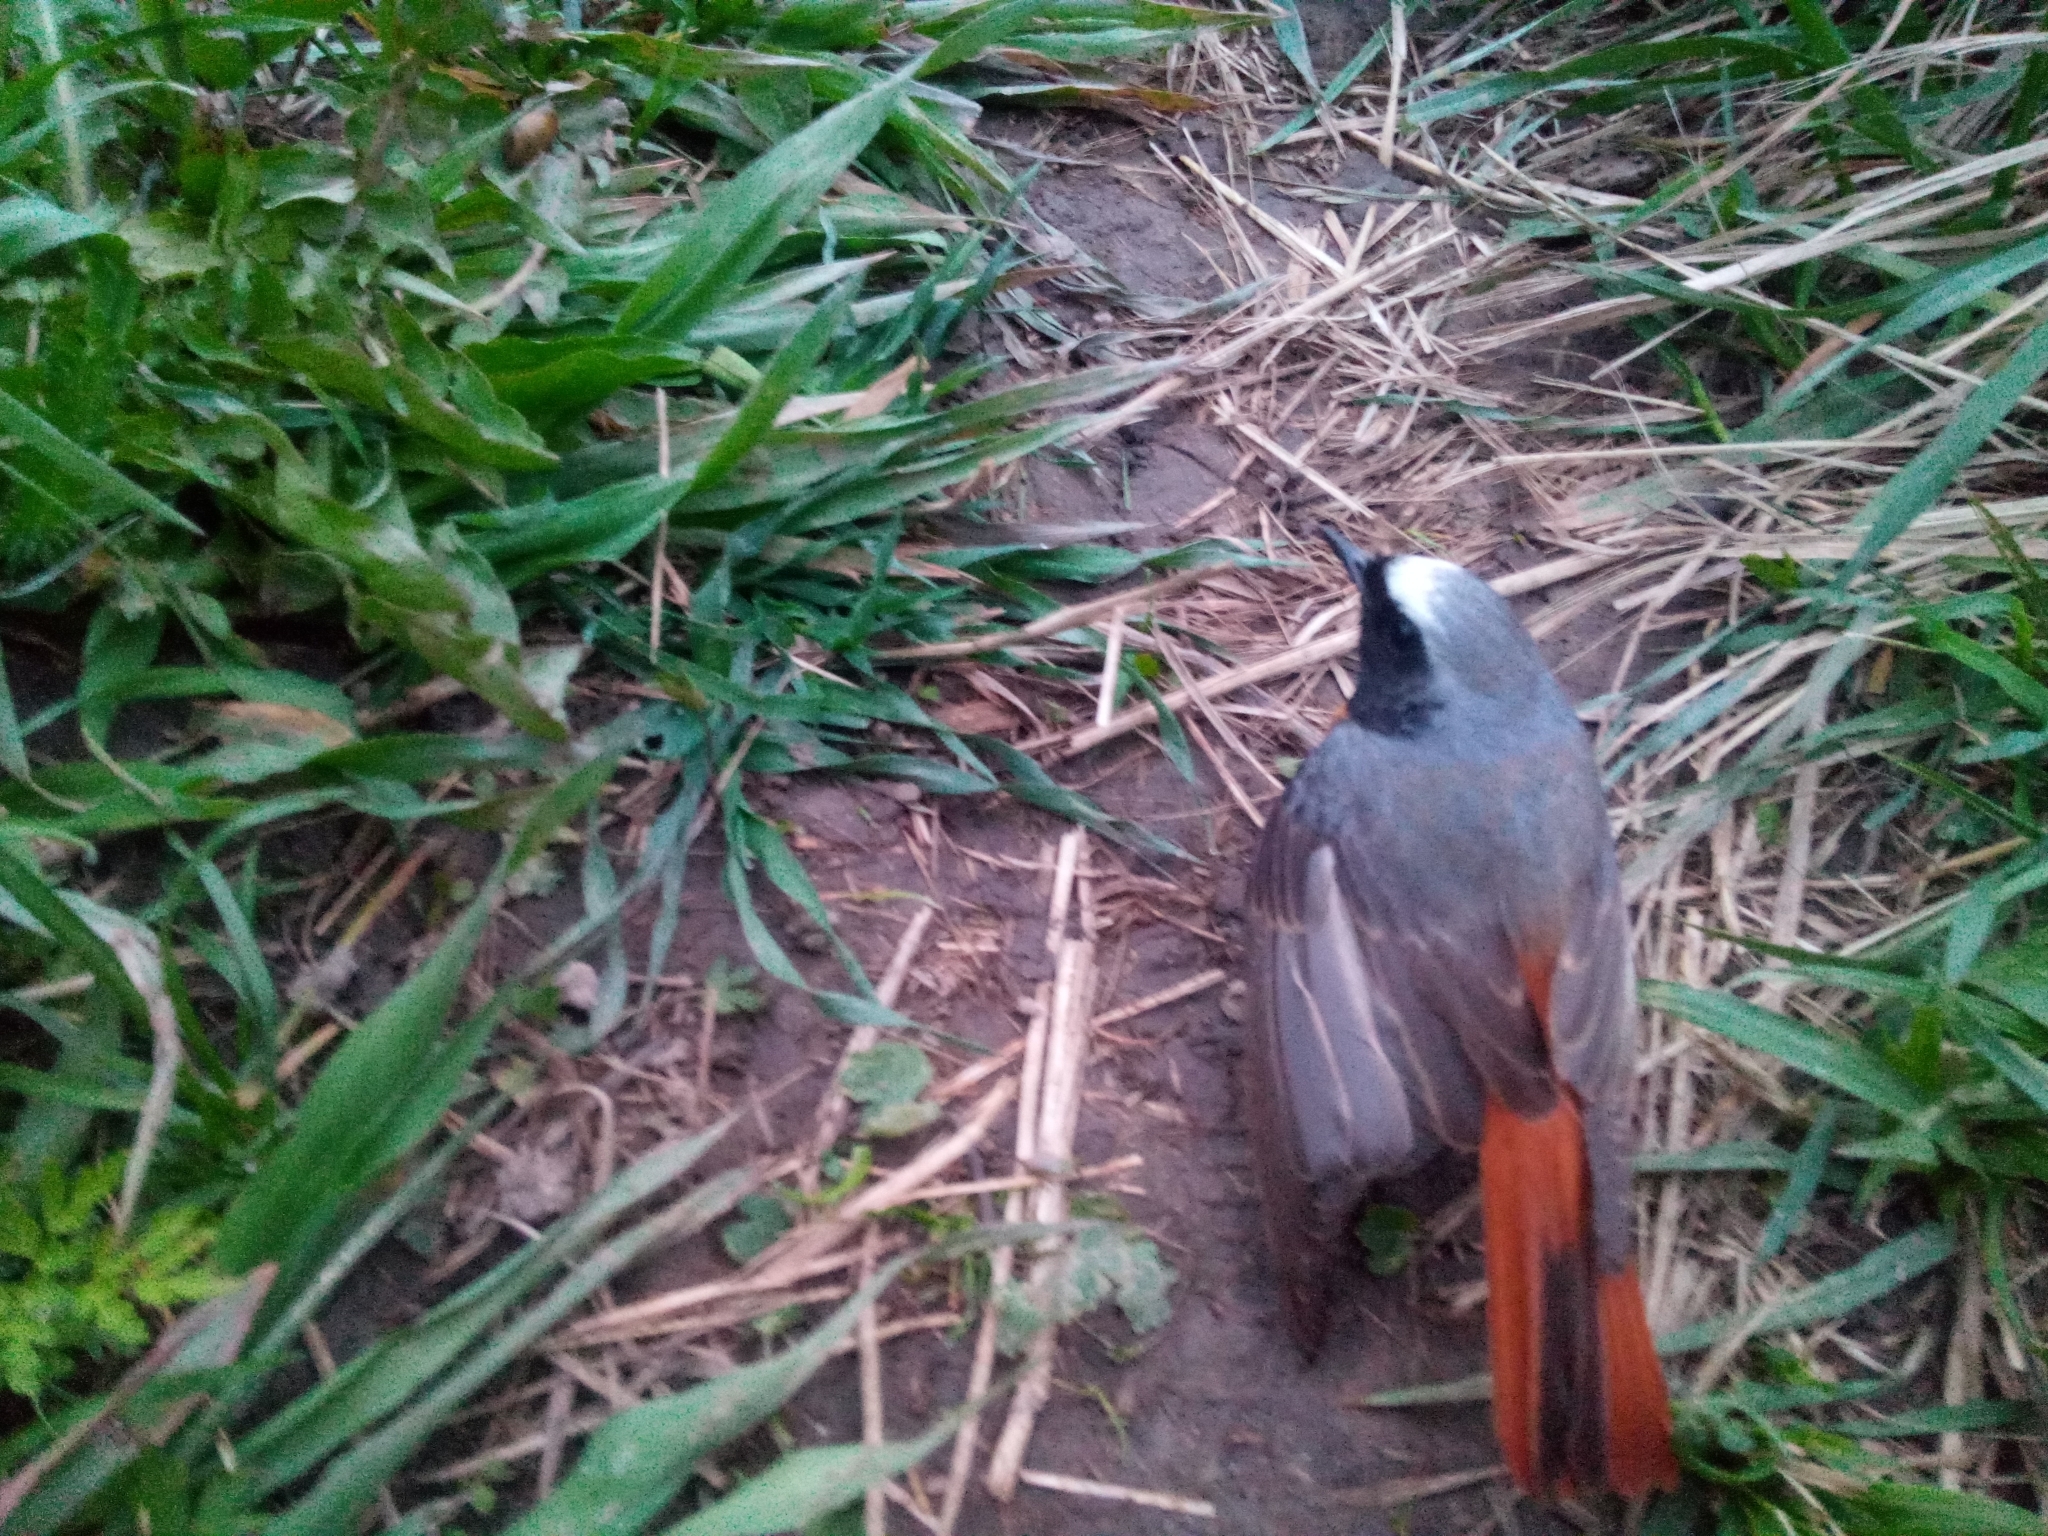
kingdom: Animalia
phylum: Chordata
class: Aves
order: Passeriformes
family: Muscicapidae
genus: Phoenicurus
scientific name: Phoenicurus phoenicurus
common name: Common redstart
